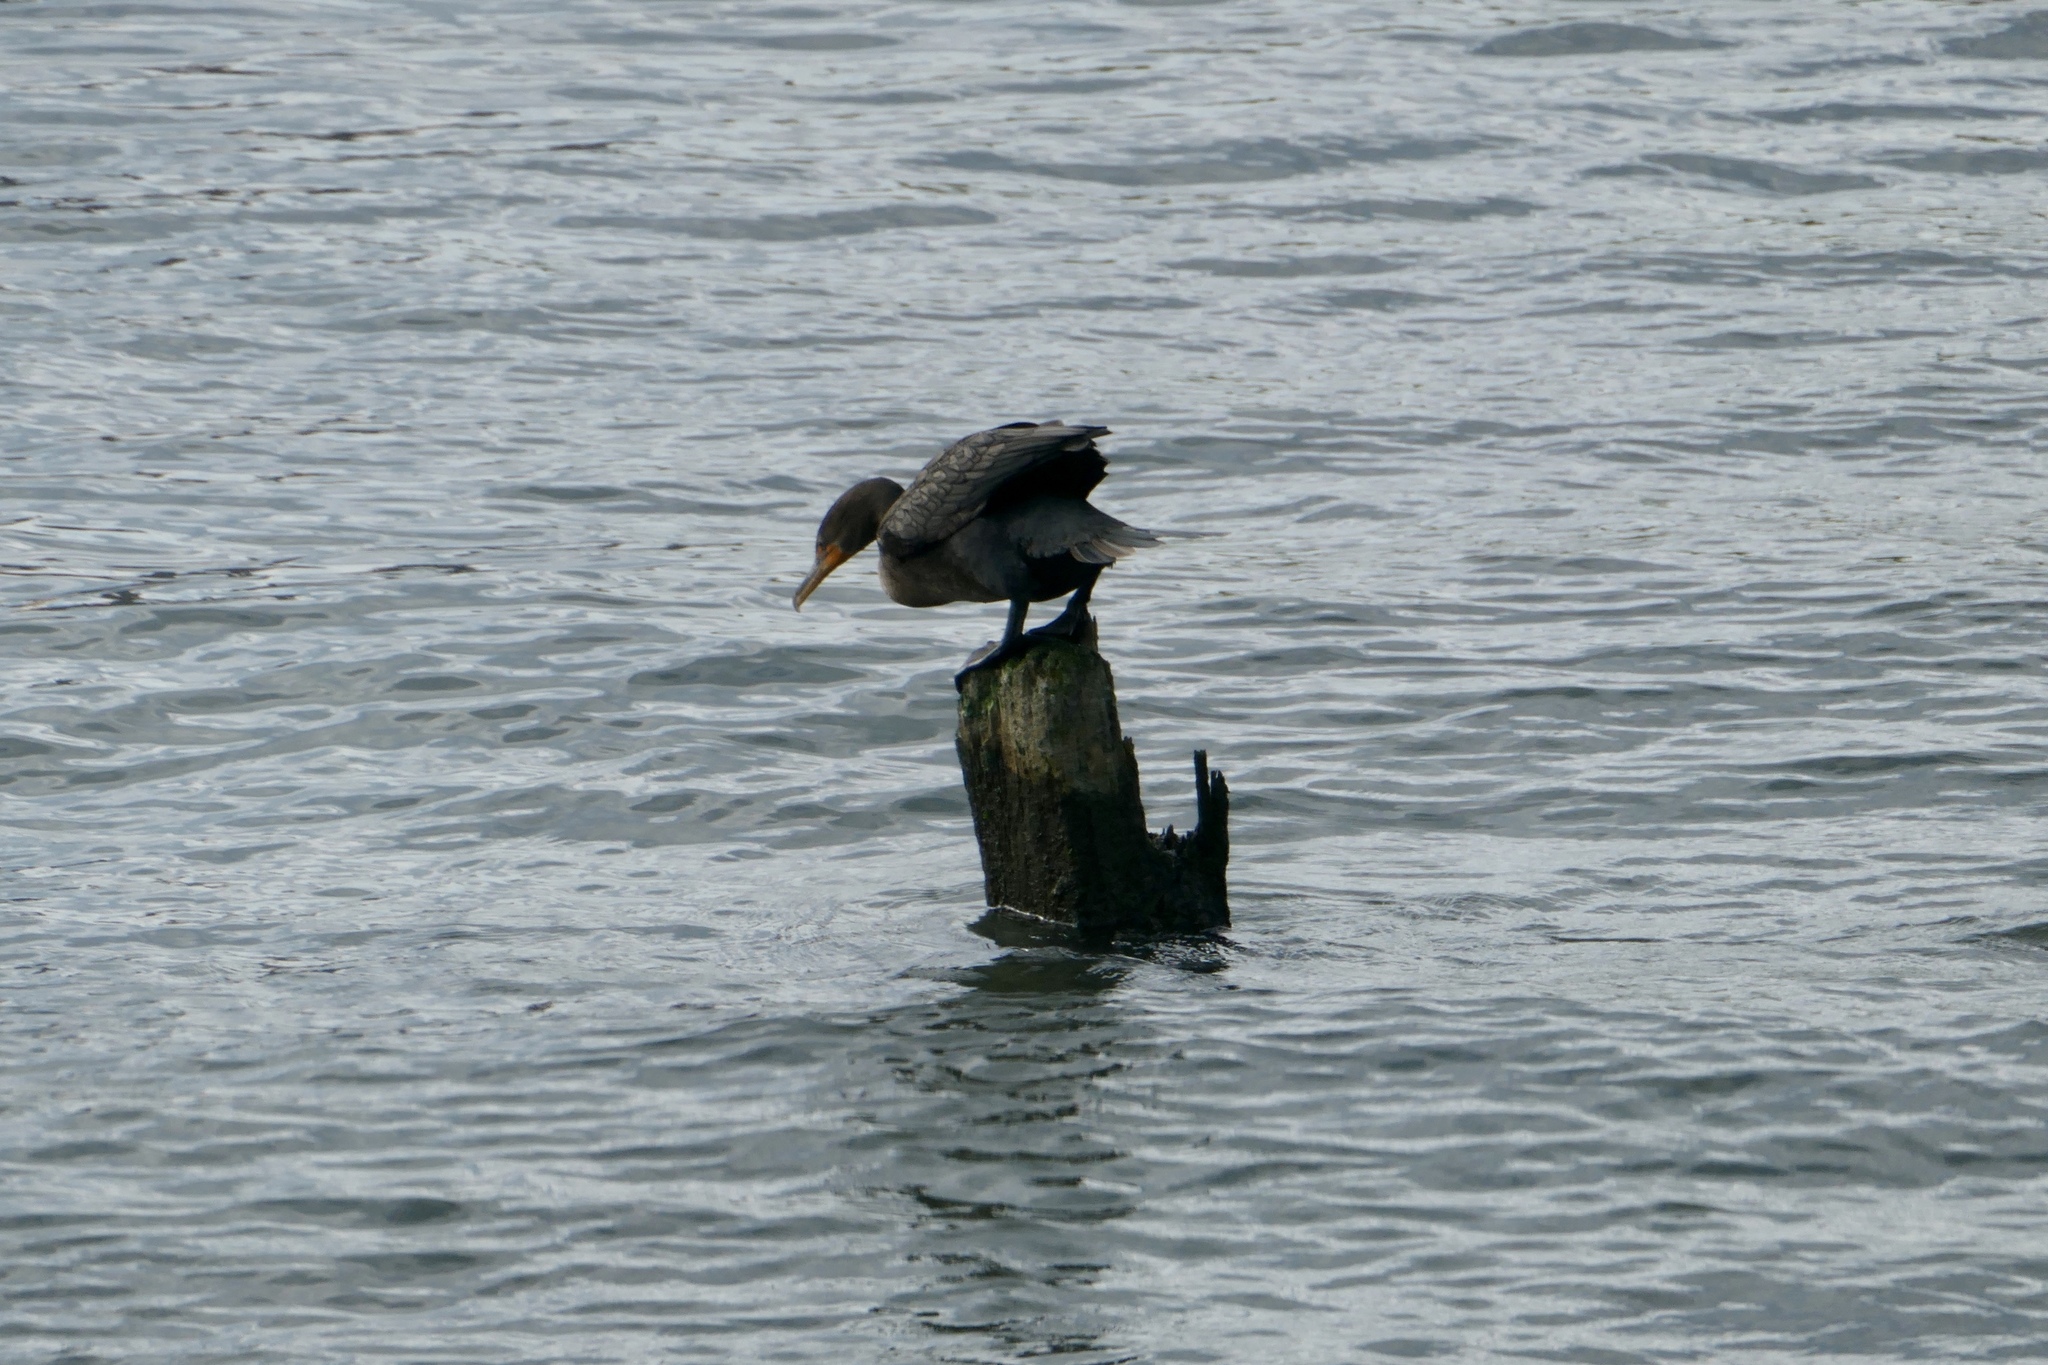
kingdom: Animalia
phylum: Chordata
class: Aves
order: Suliformes
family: Phalacrocoracidae
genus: Phalacrocorax
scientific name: Phalacrocorax auritus
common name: Double-crested cormorant
